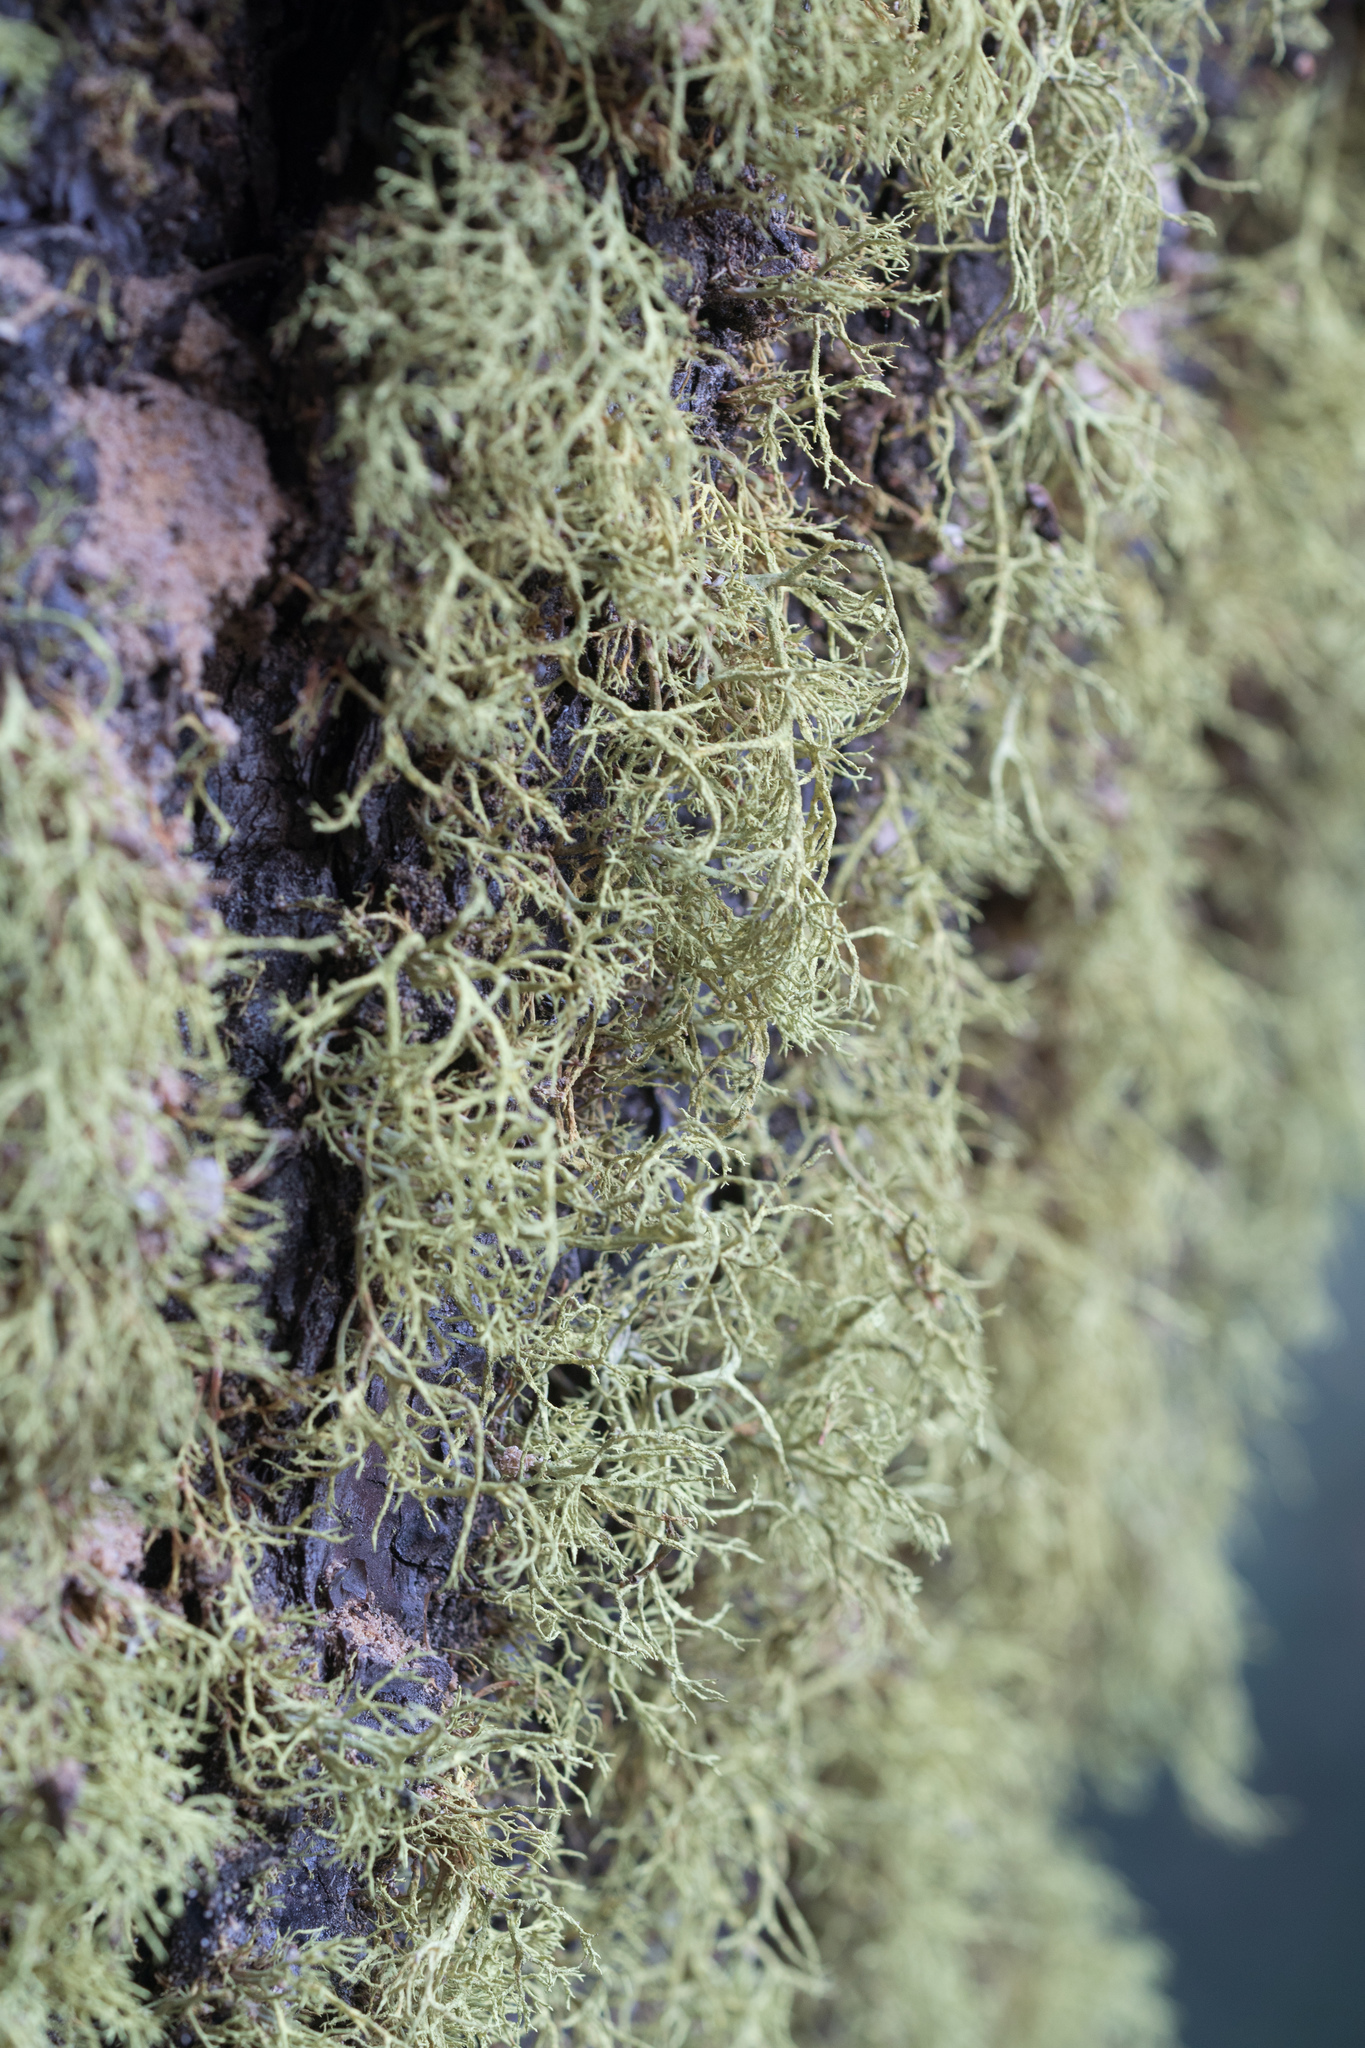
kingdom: Fungi
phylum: Ascomycota
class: Lecanoromycetes
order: Lecanorales
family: Parmeliaceae
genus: Letharia
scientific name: Letharia vulpina
